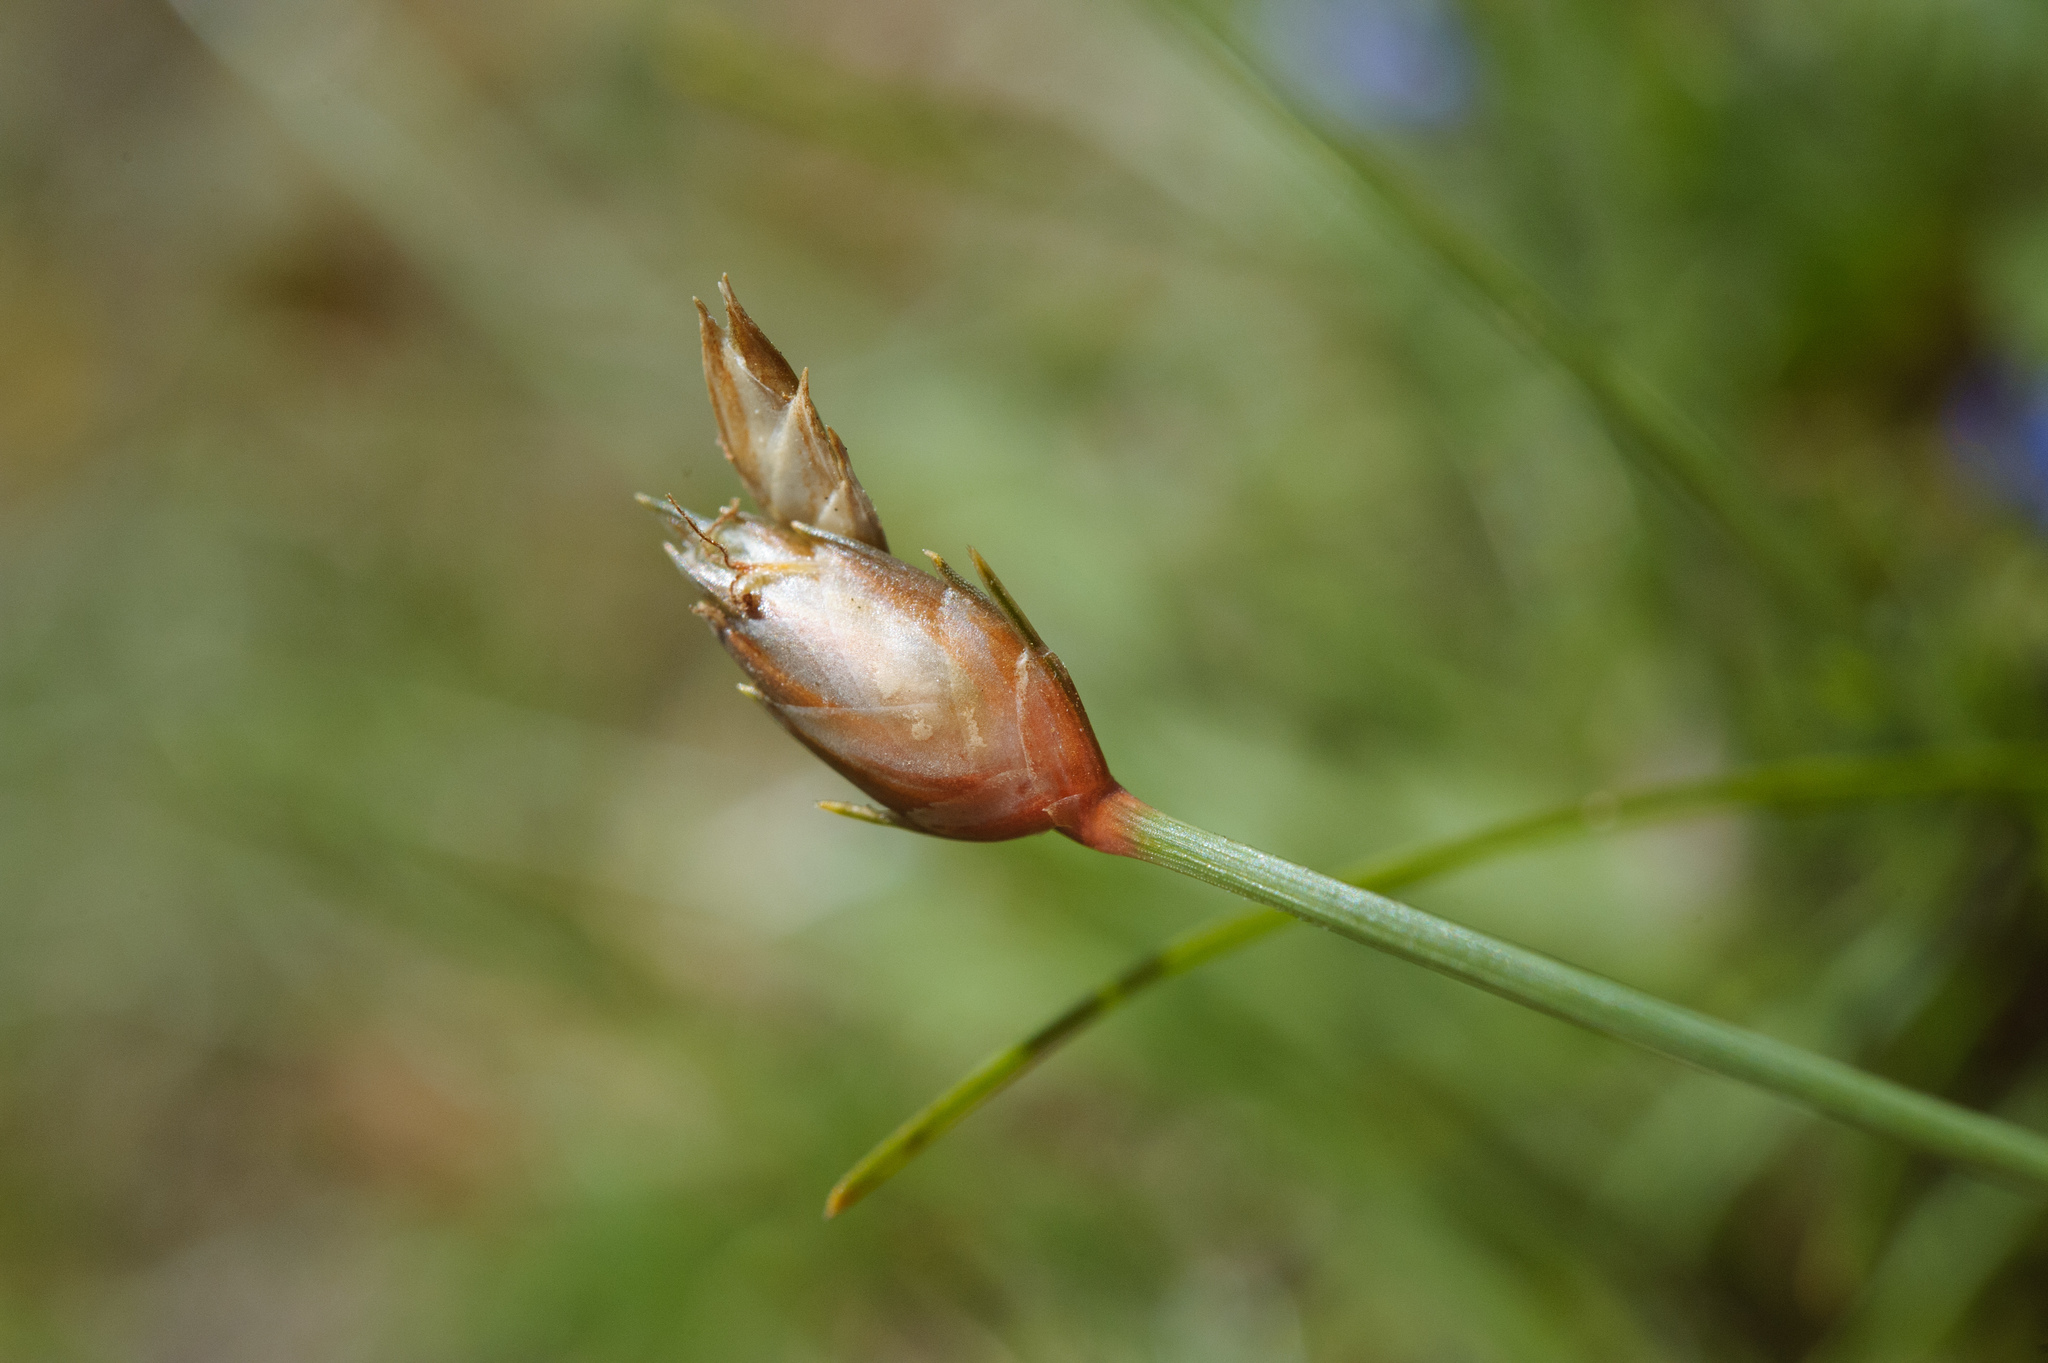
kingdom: Plantae
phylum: Tracheophyta
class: Liliopsida
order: Poales
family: Cyperaceae
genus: Abildgaardia
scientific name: Abildgaardia ovata
